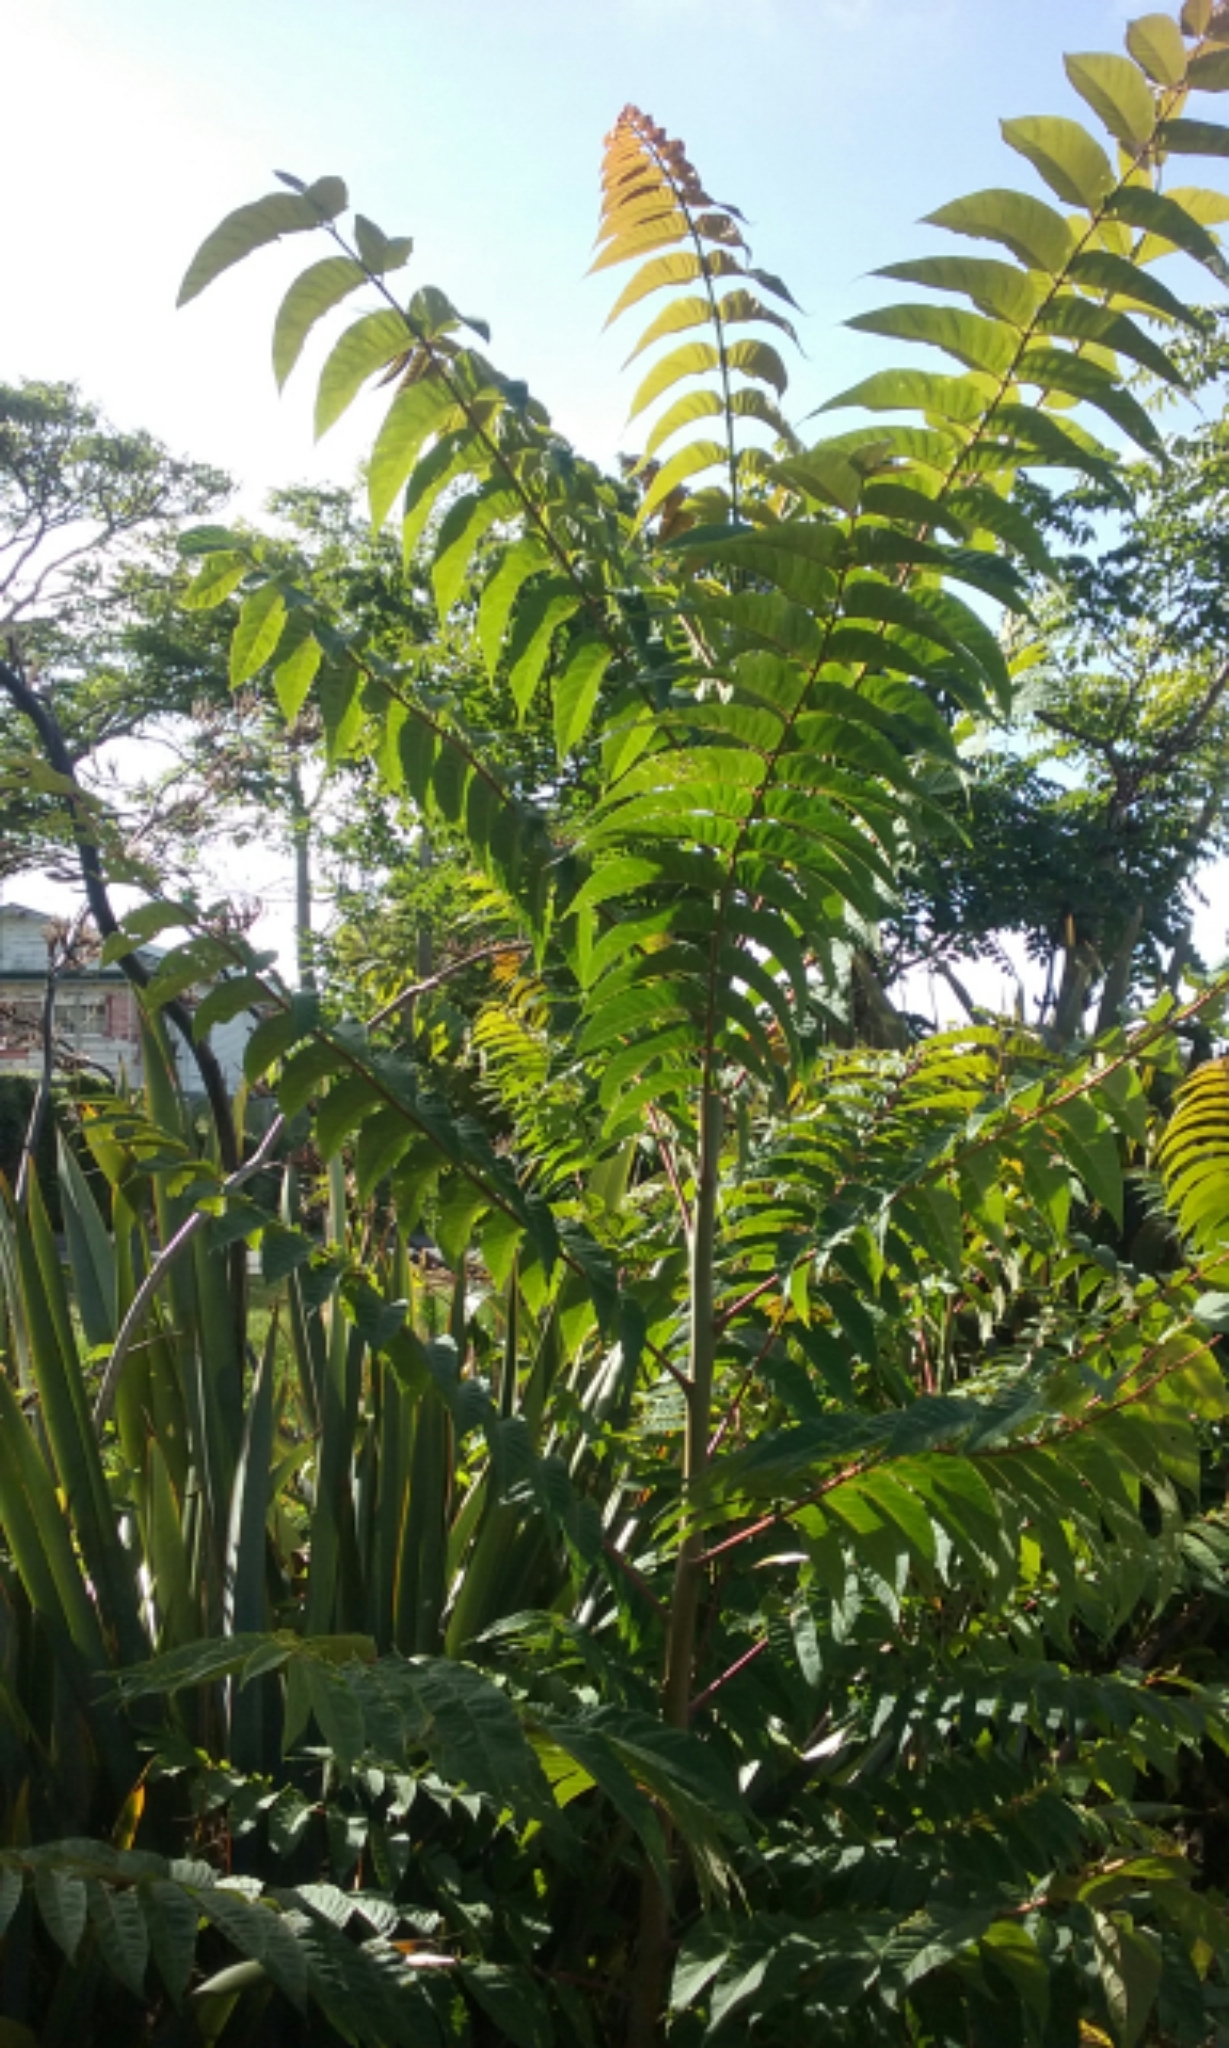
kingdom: Plantae
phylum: Tracheophyta
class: Magnoliopsida
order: Sapindales
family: Simaroubaceae
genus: Ailanthus
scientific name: Ailanthus altissima
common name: Tree-of-heaven
